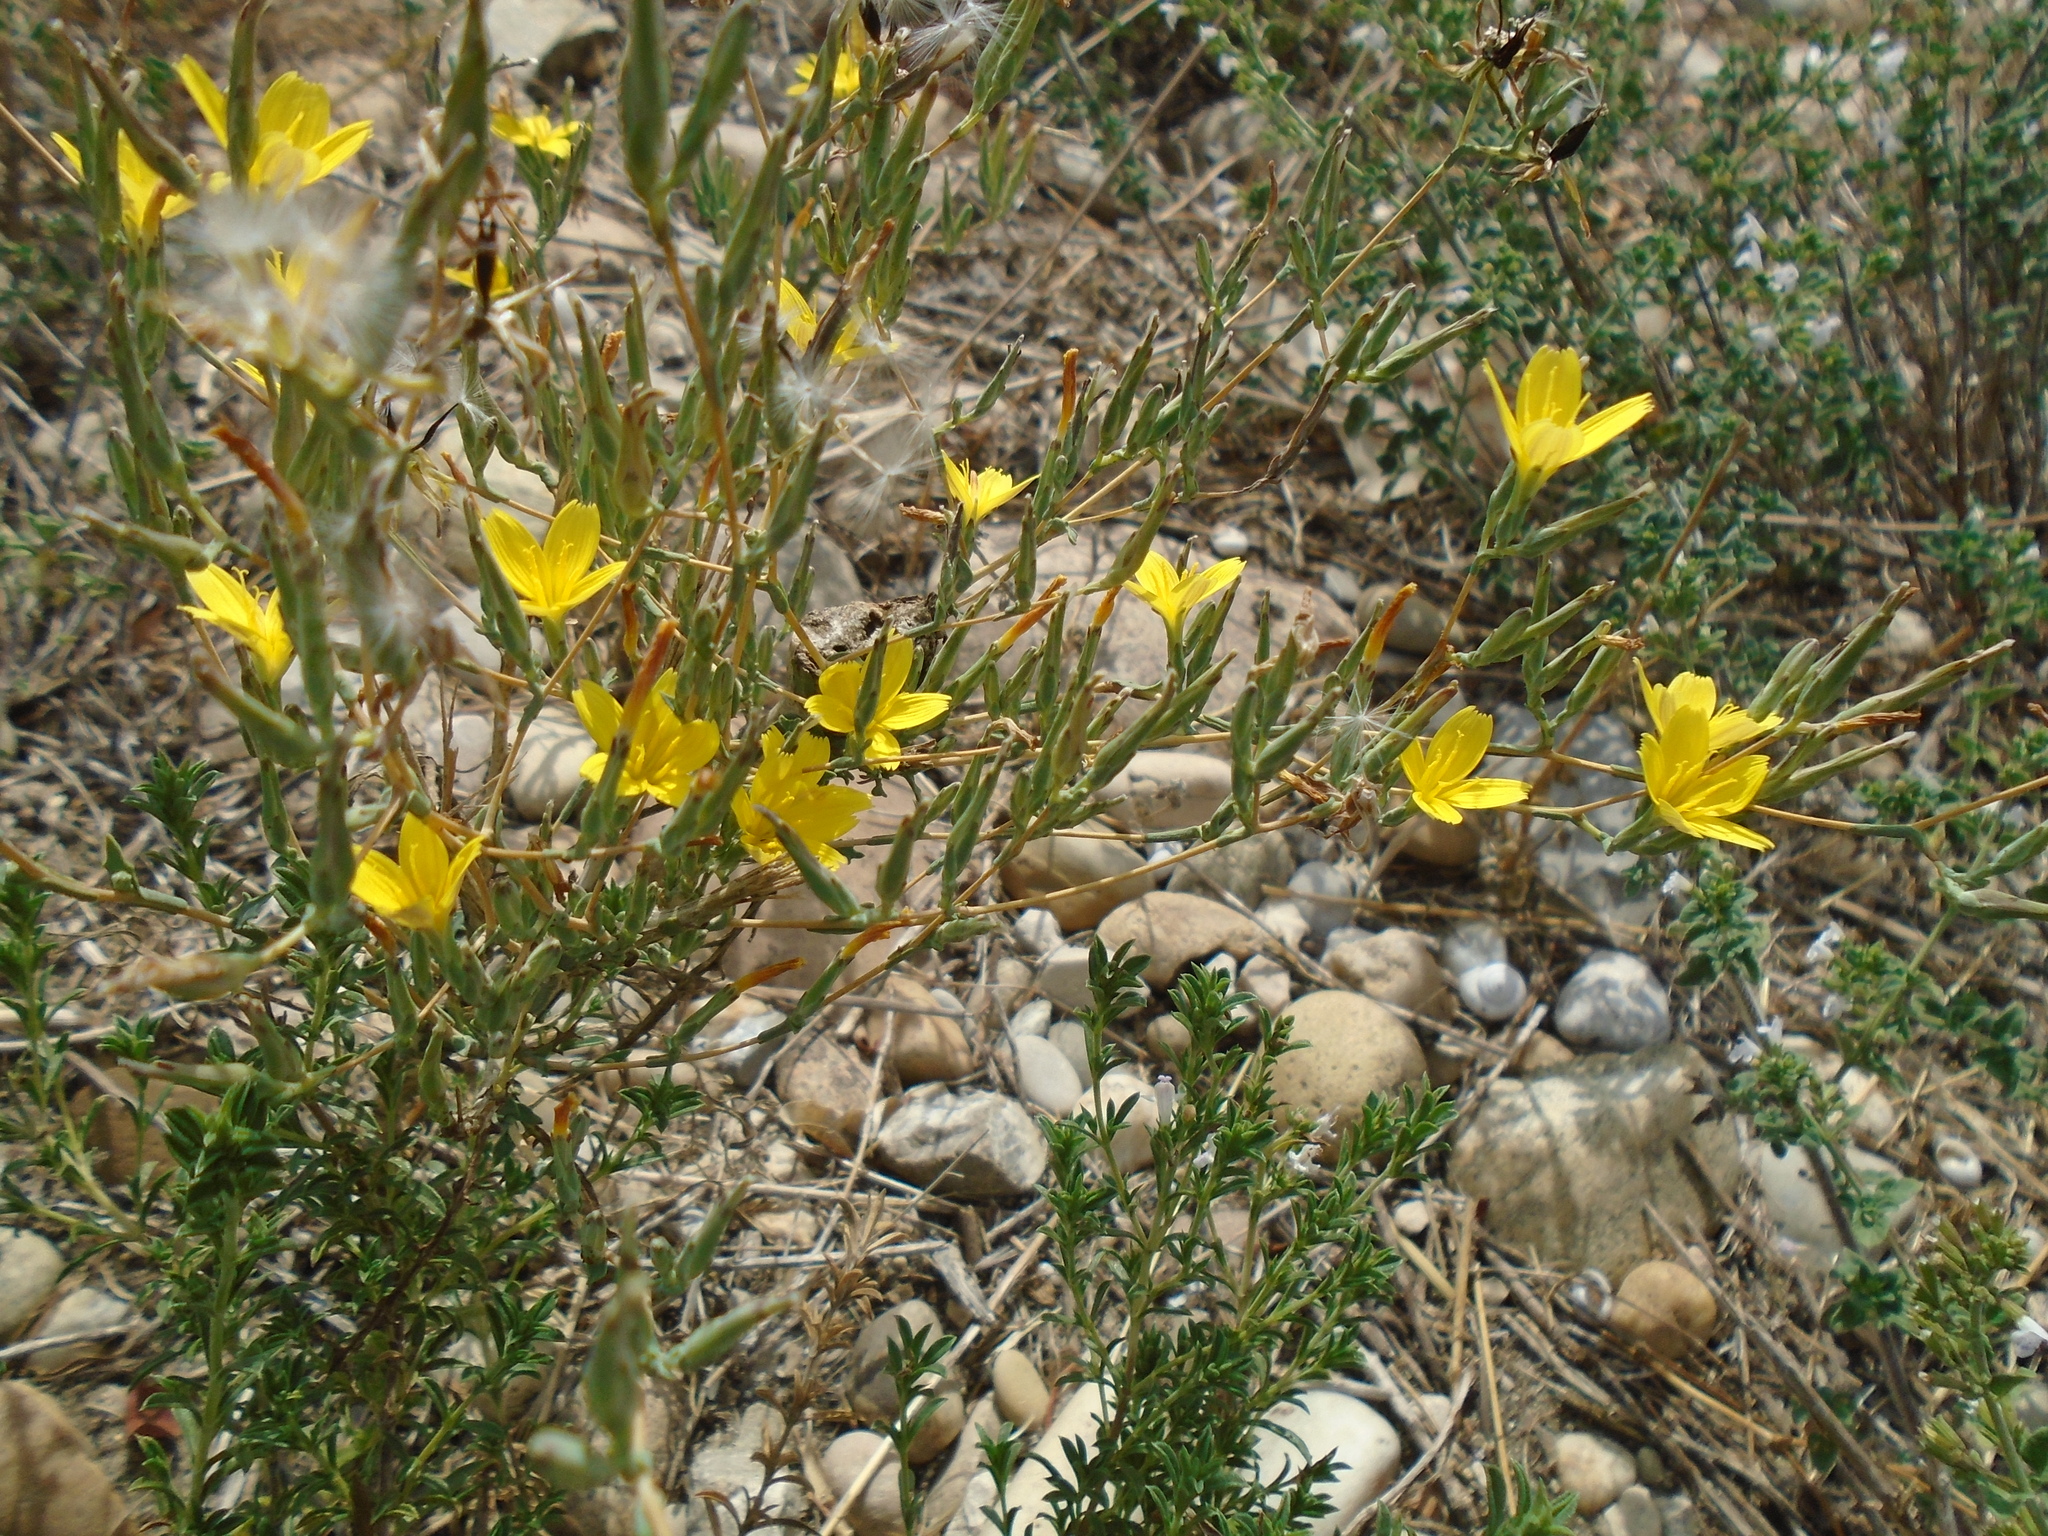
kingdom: Plantae
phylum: Tracheophyta
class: Magnoliopsida
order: Asterales
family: Asteraceae
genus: Lactuca
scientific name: Lactuca viminea
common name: Pliant lettuce
